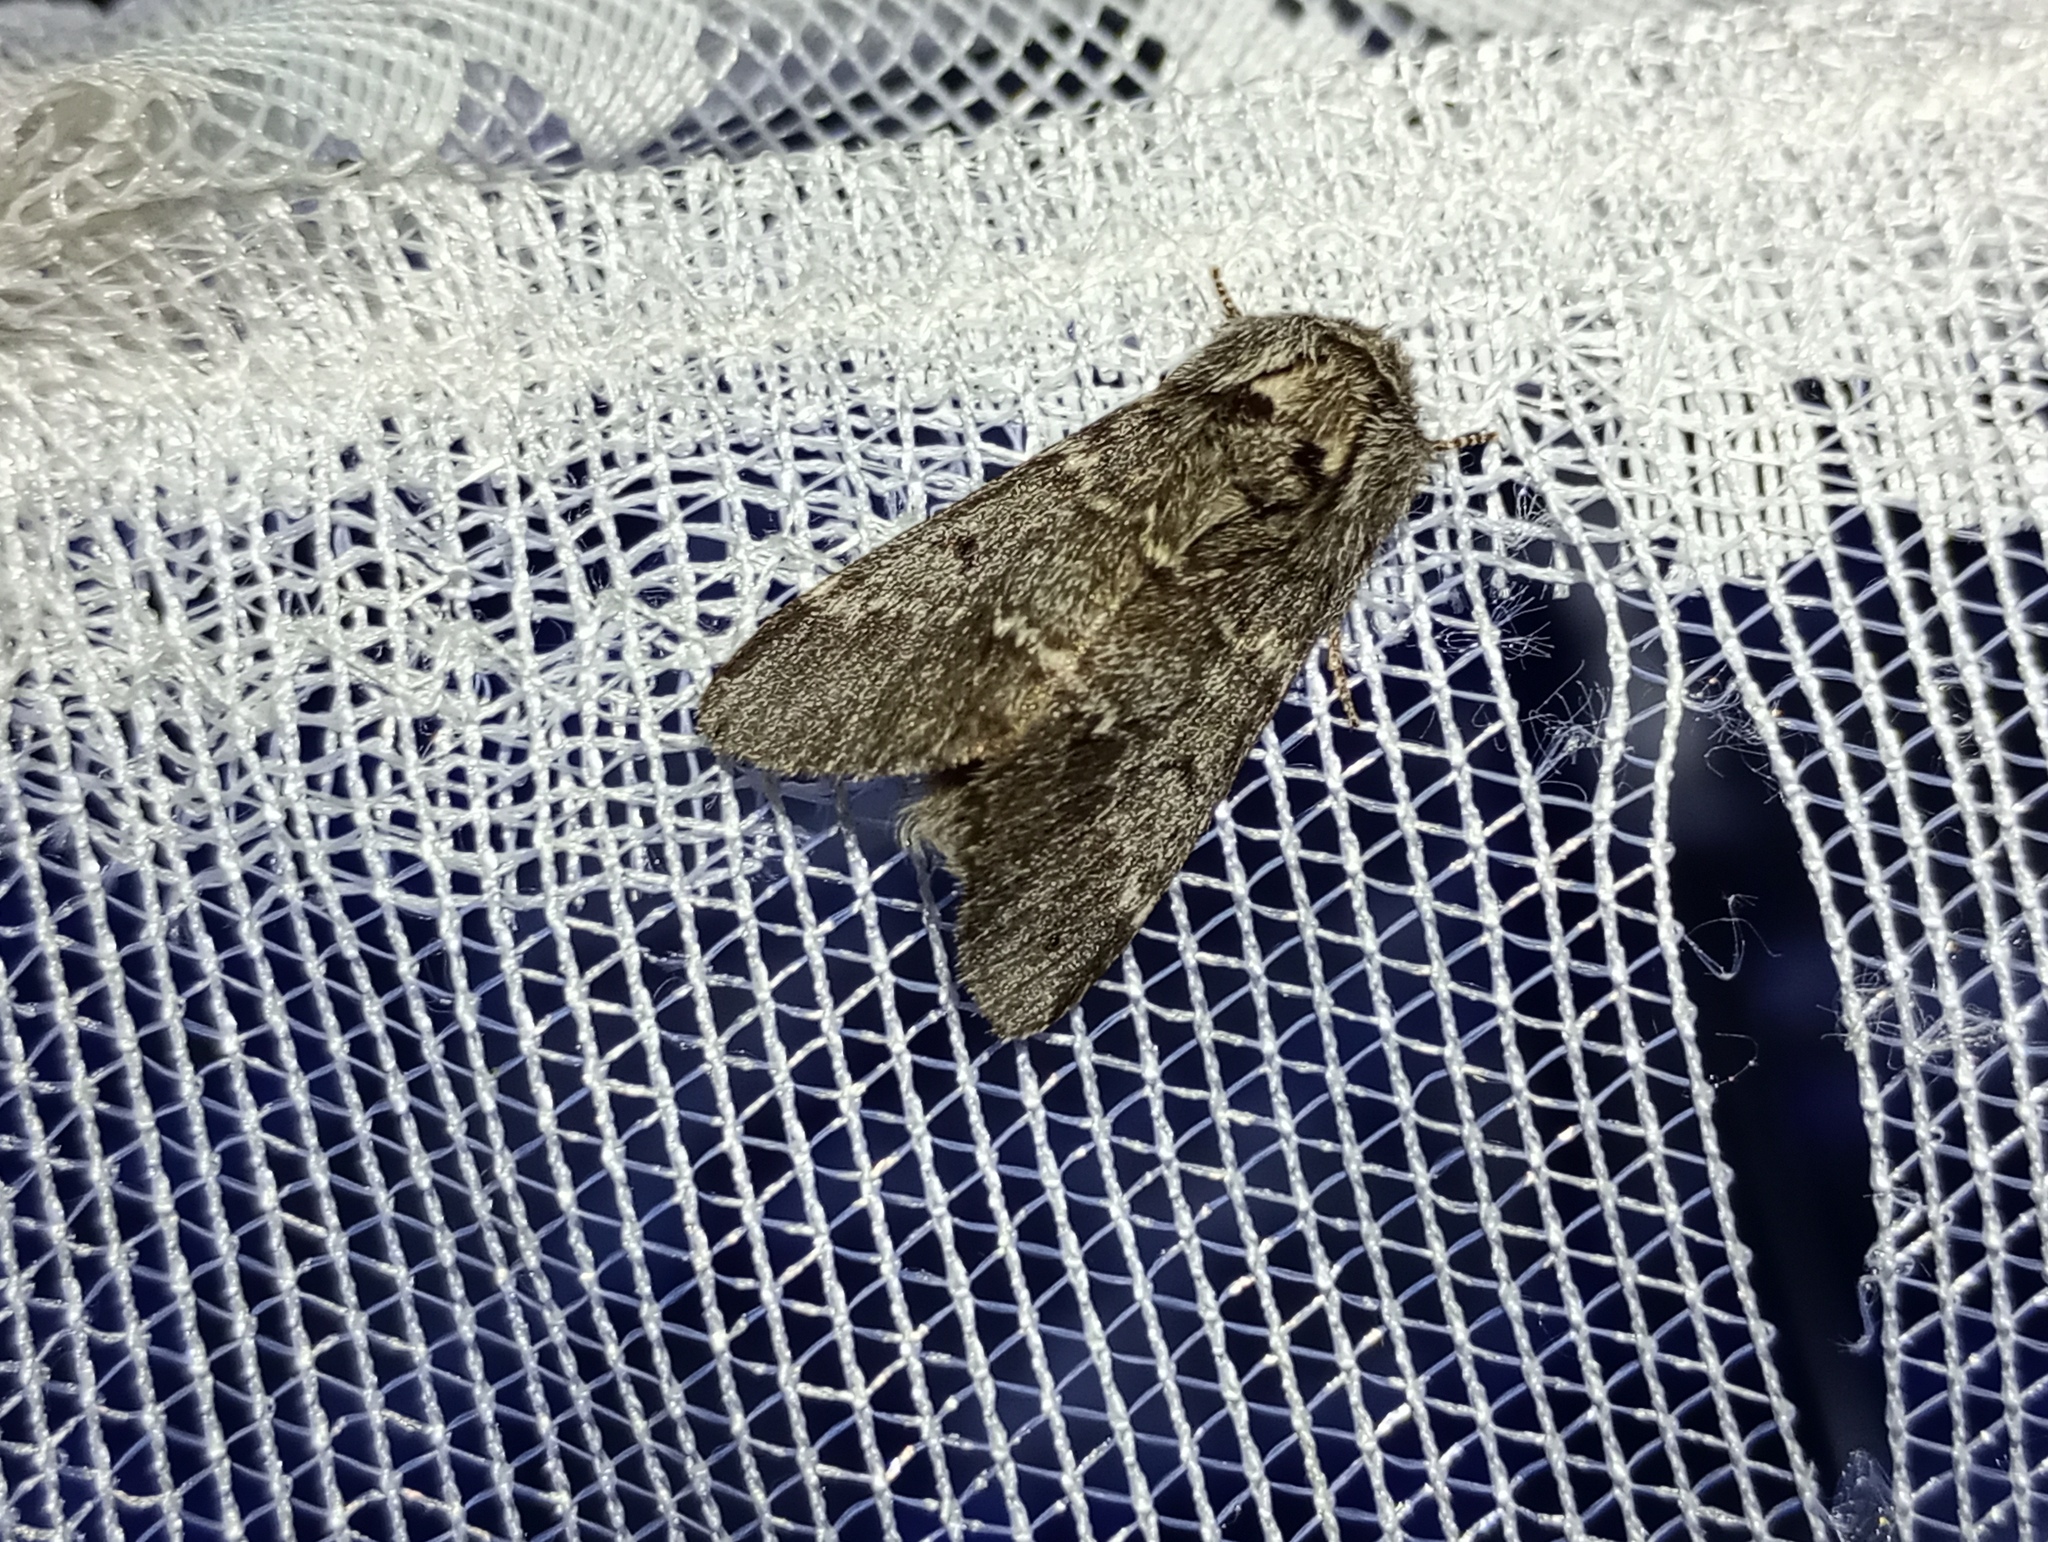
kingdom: Animalia
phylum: Arthropoda
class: Insecta
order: Lepidoptera
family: Notodontidae
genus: Drymonia
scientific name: Drymonia ruficornis
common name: Lunar marbled brown
